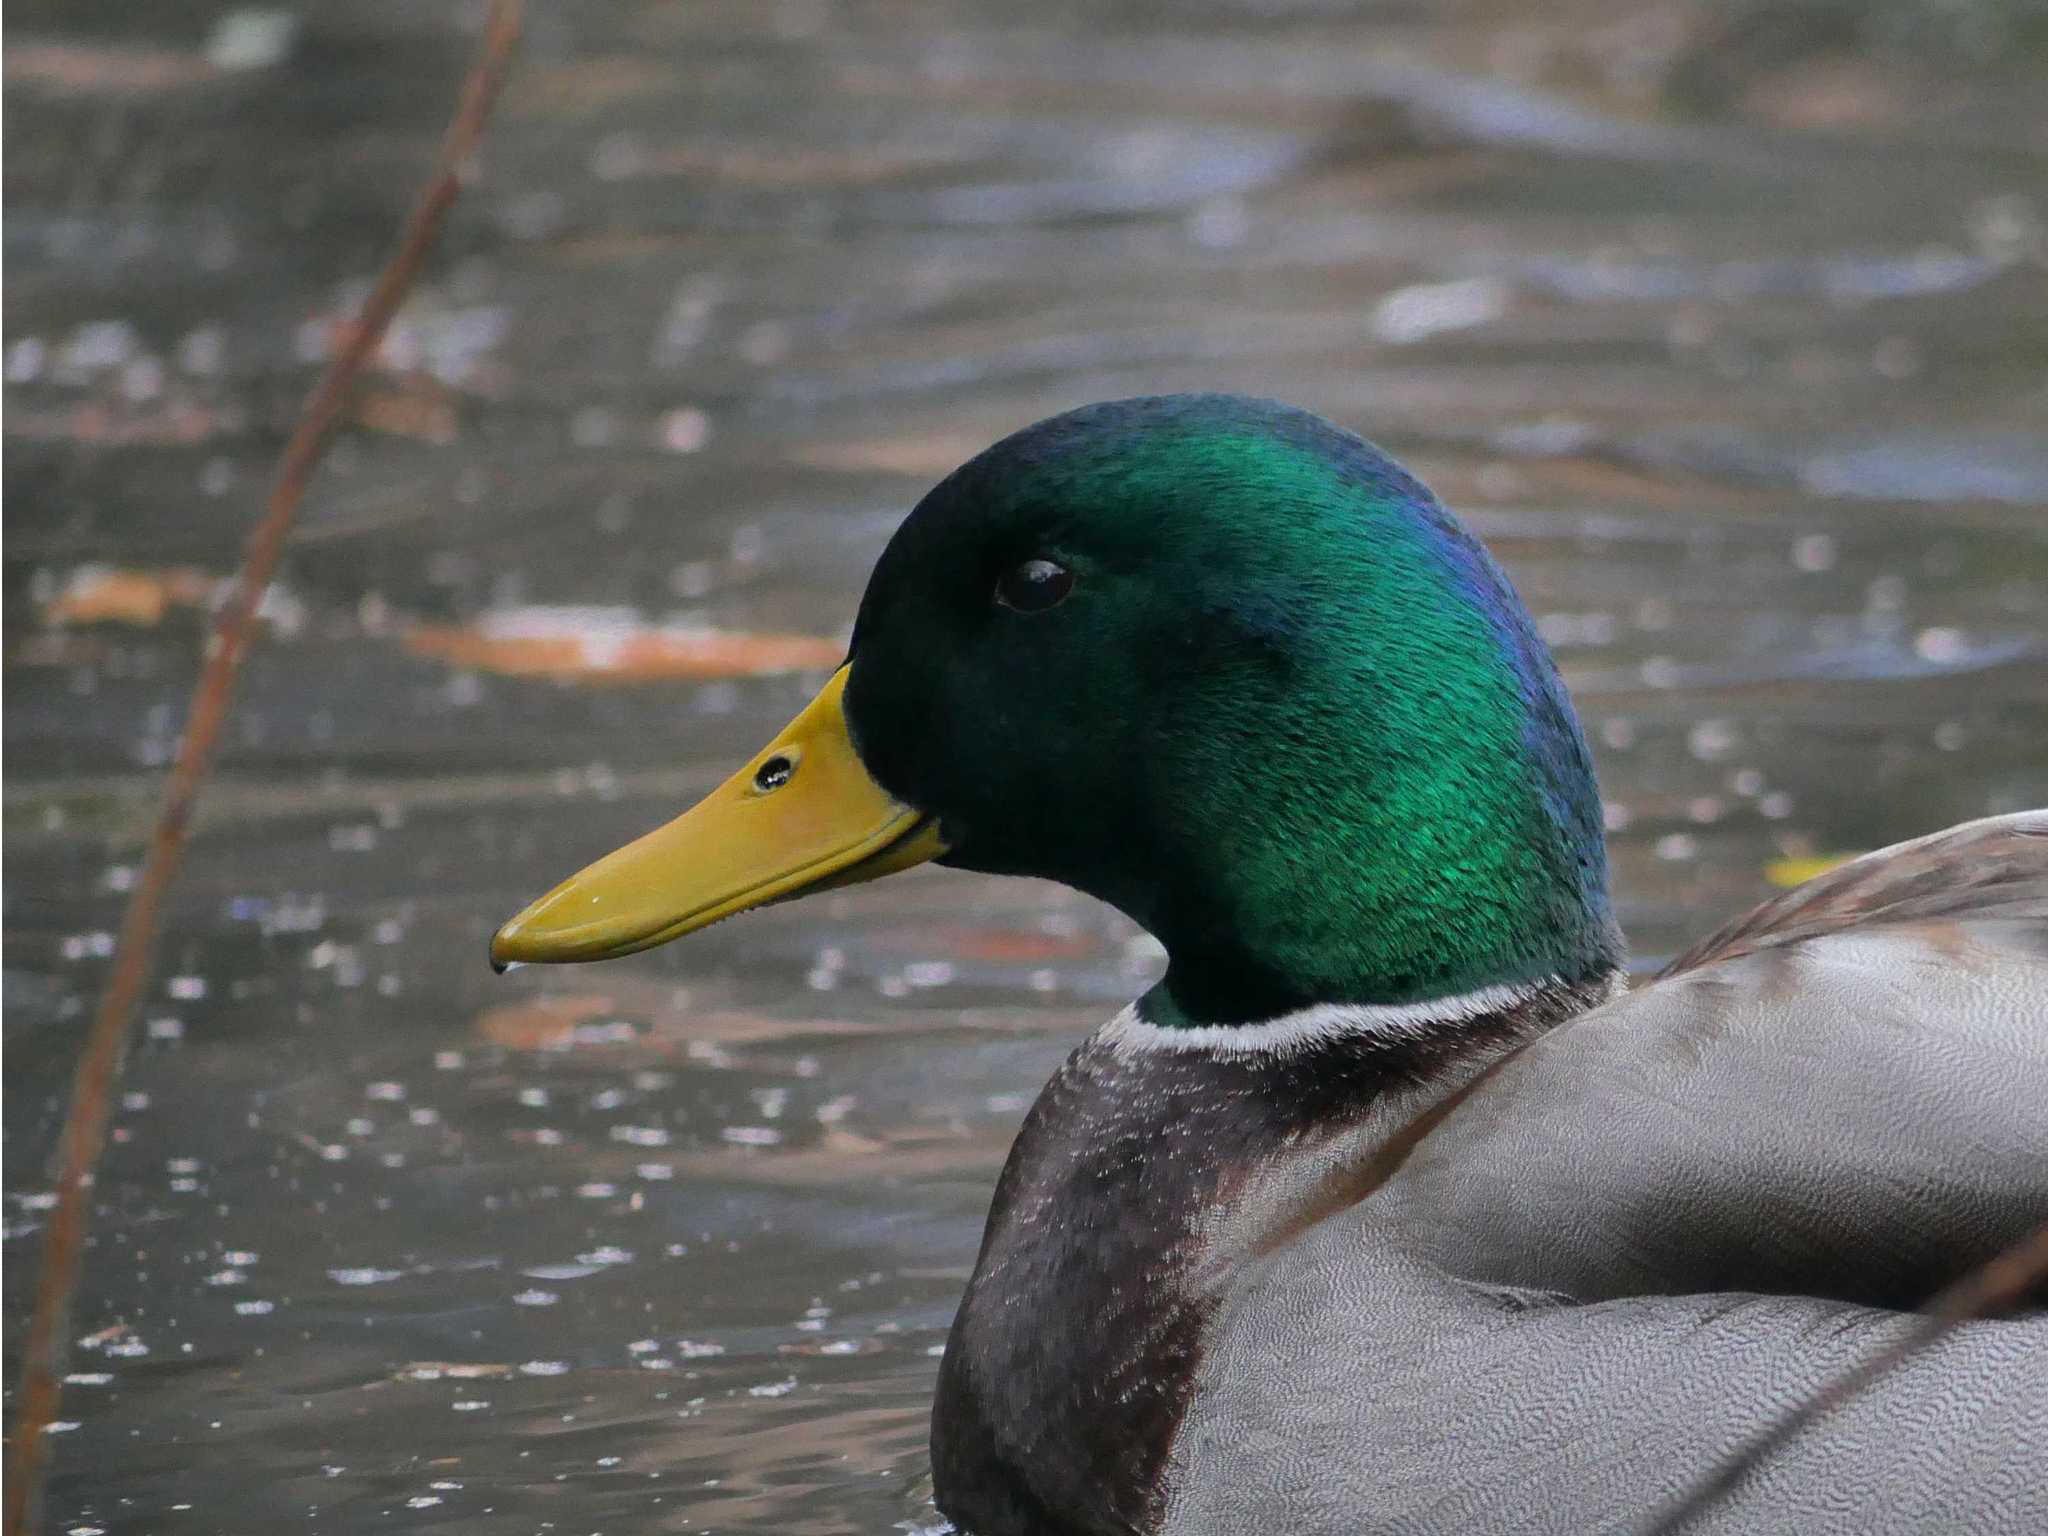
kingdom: Animalia
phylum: Chordata
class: Aves
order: Anseriformes
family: Anatidae
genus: Anas
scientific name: Anas platyrhynchos
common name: Mallard
